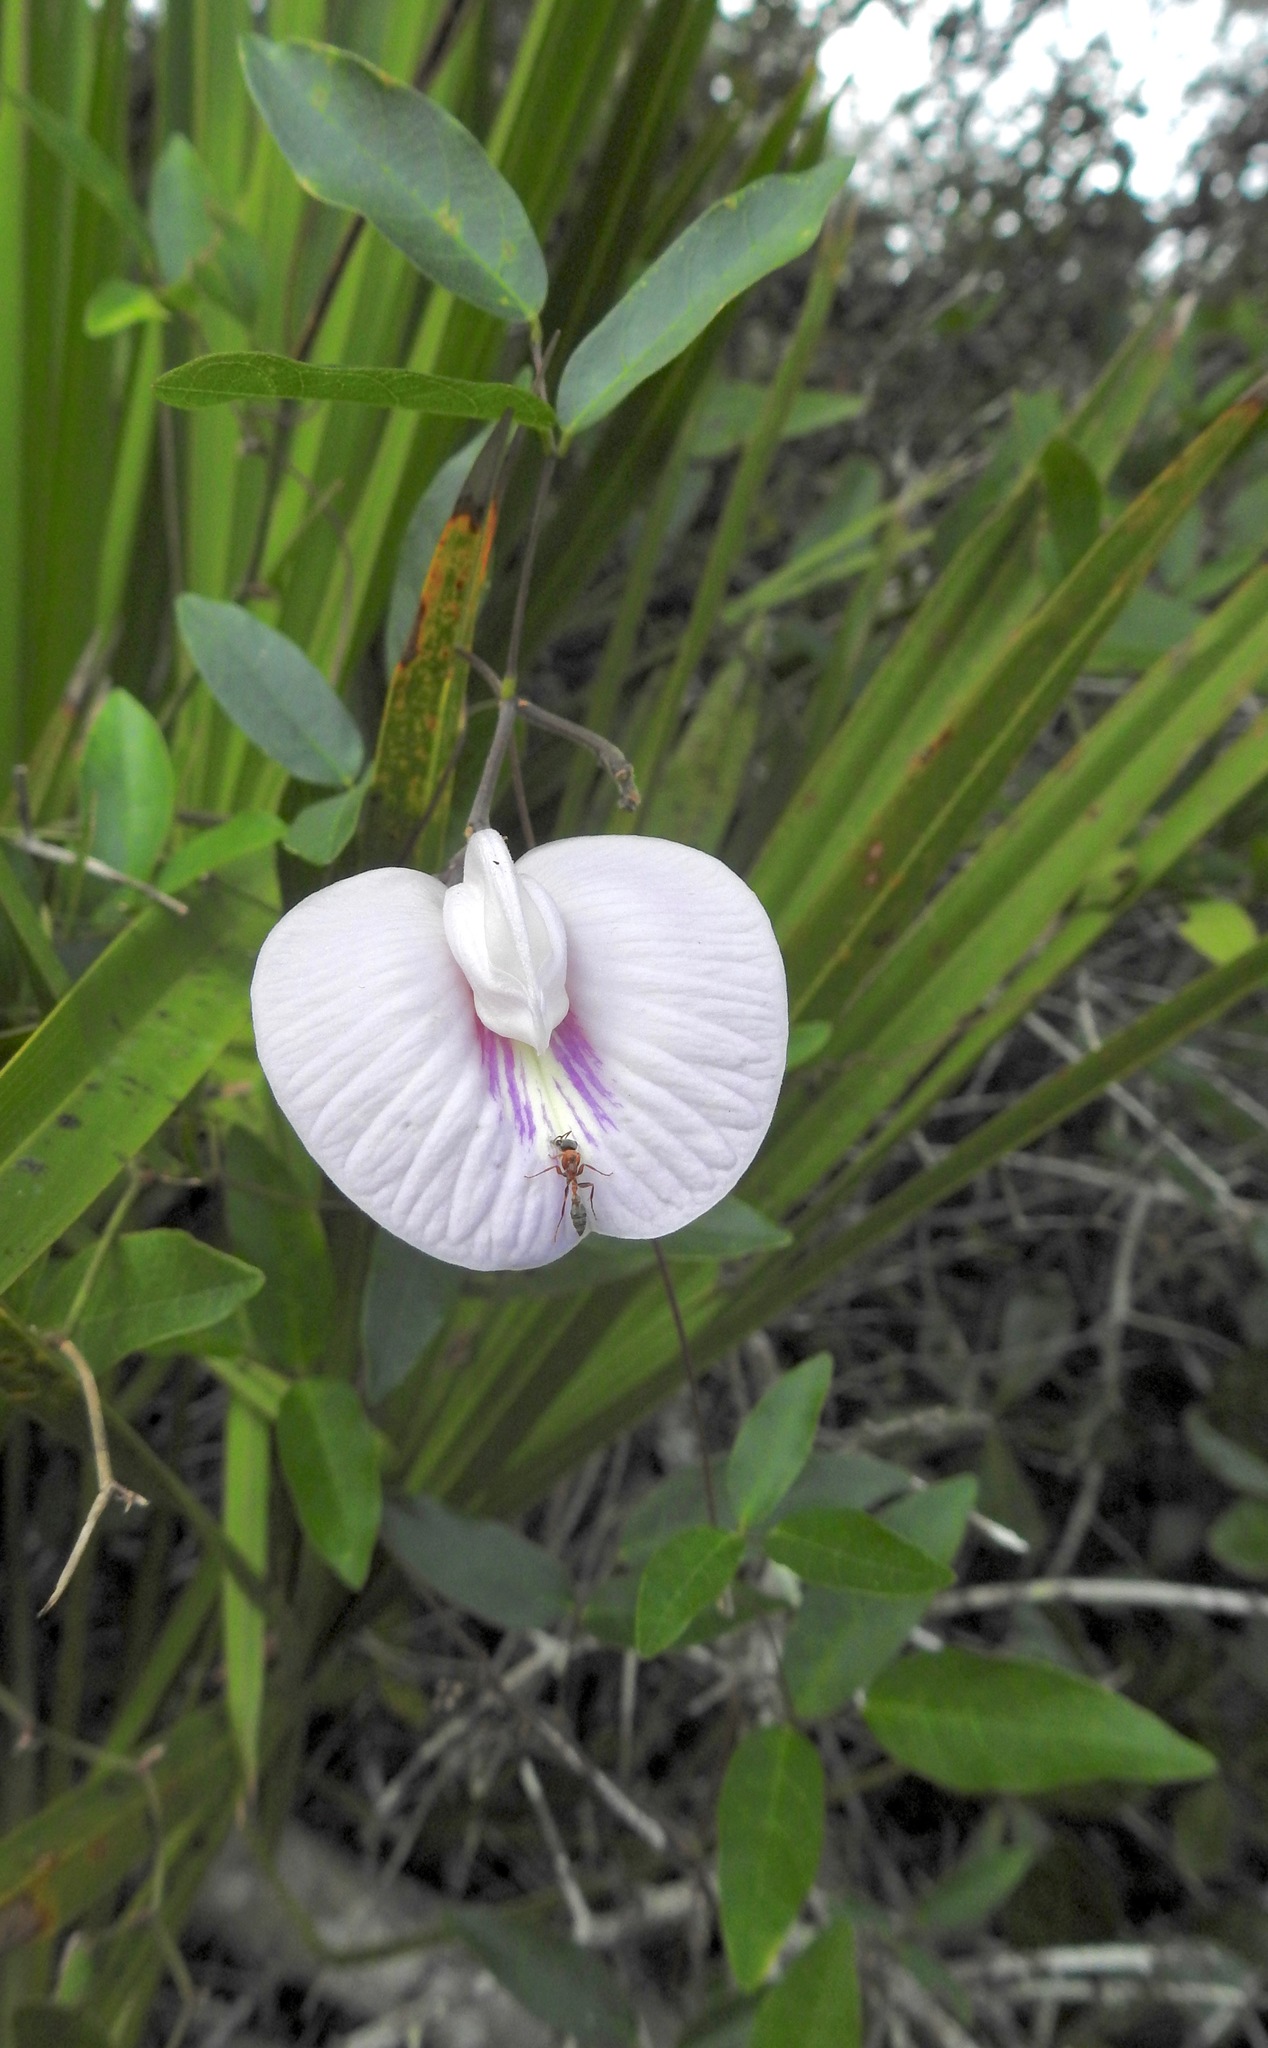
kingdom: Plantae
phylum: Tracheophyta
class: Magnoliopsida
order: Fabales
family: Fabaceae
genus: Centrosema
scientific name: Centrosema arenicola
